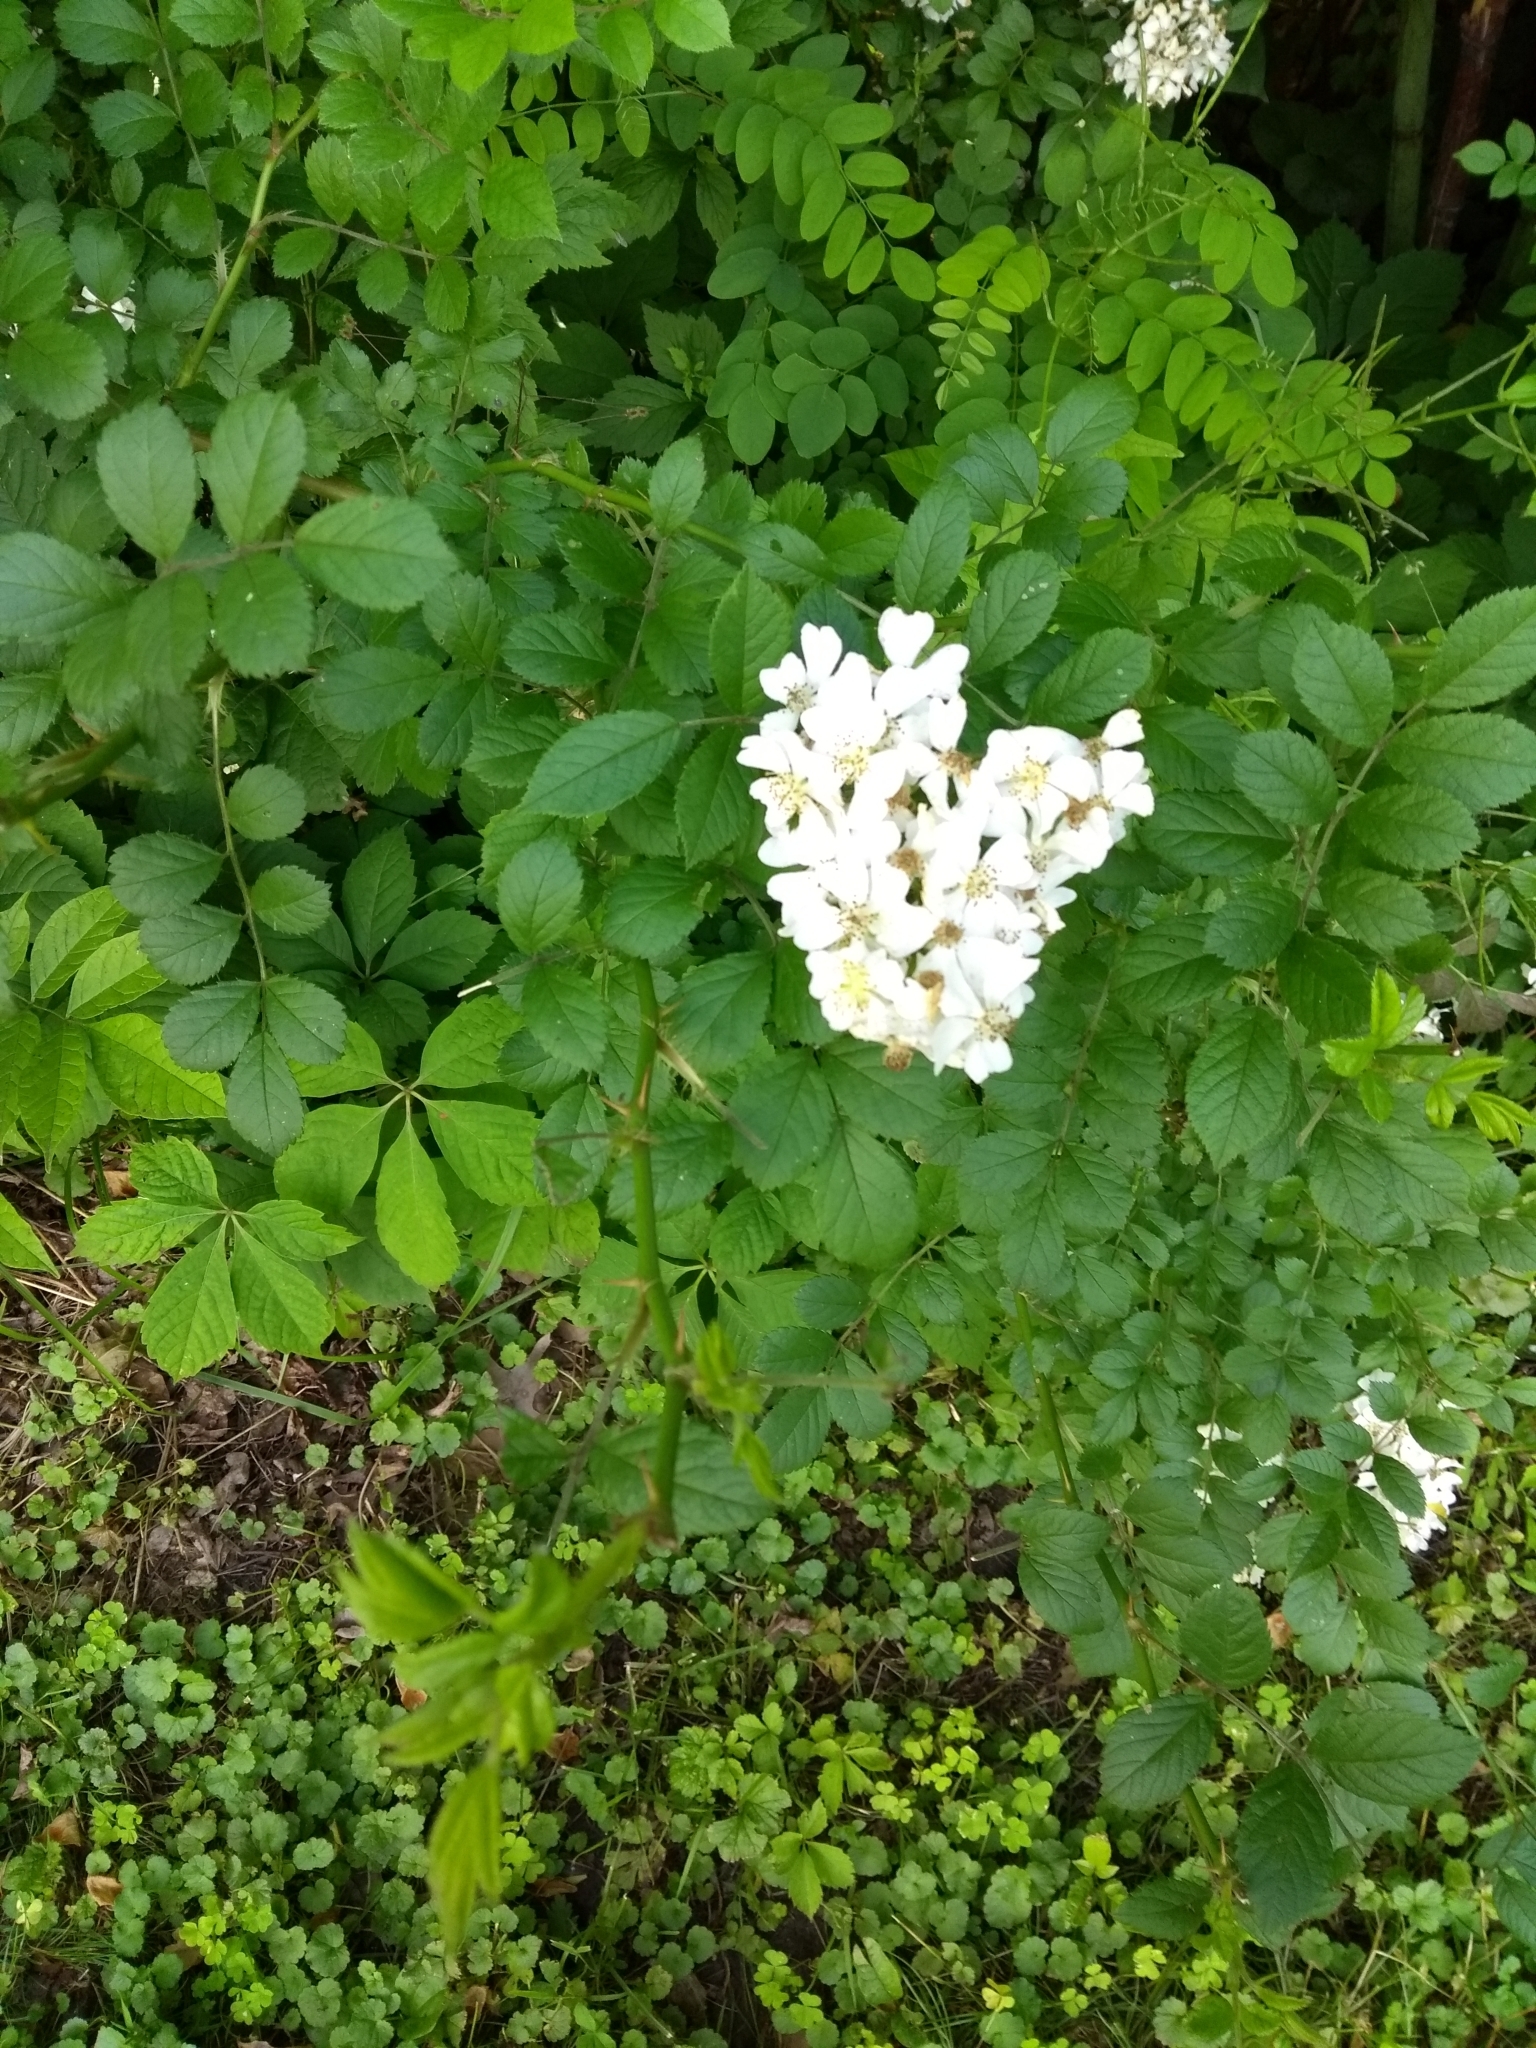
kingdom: Plantae
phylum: Tracheophyta
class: Magnoliopsida
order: Rosales
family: Rosaceae
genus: Rosa
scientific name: Rosa multiflora
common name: Multiflora rose
